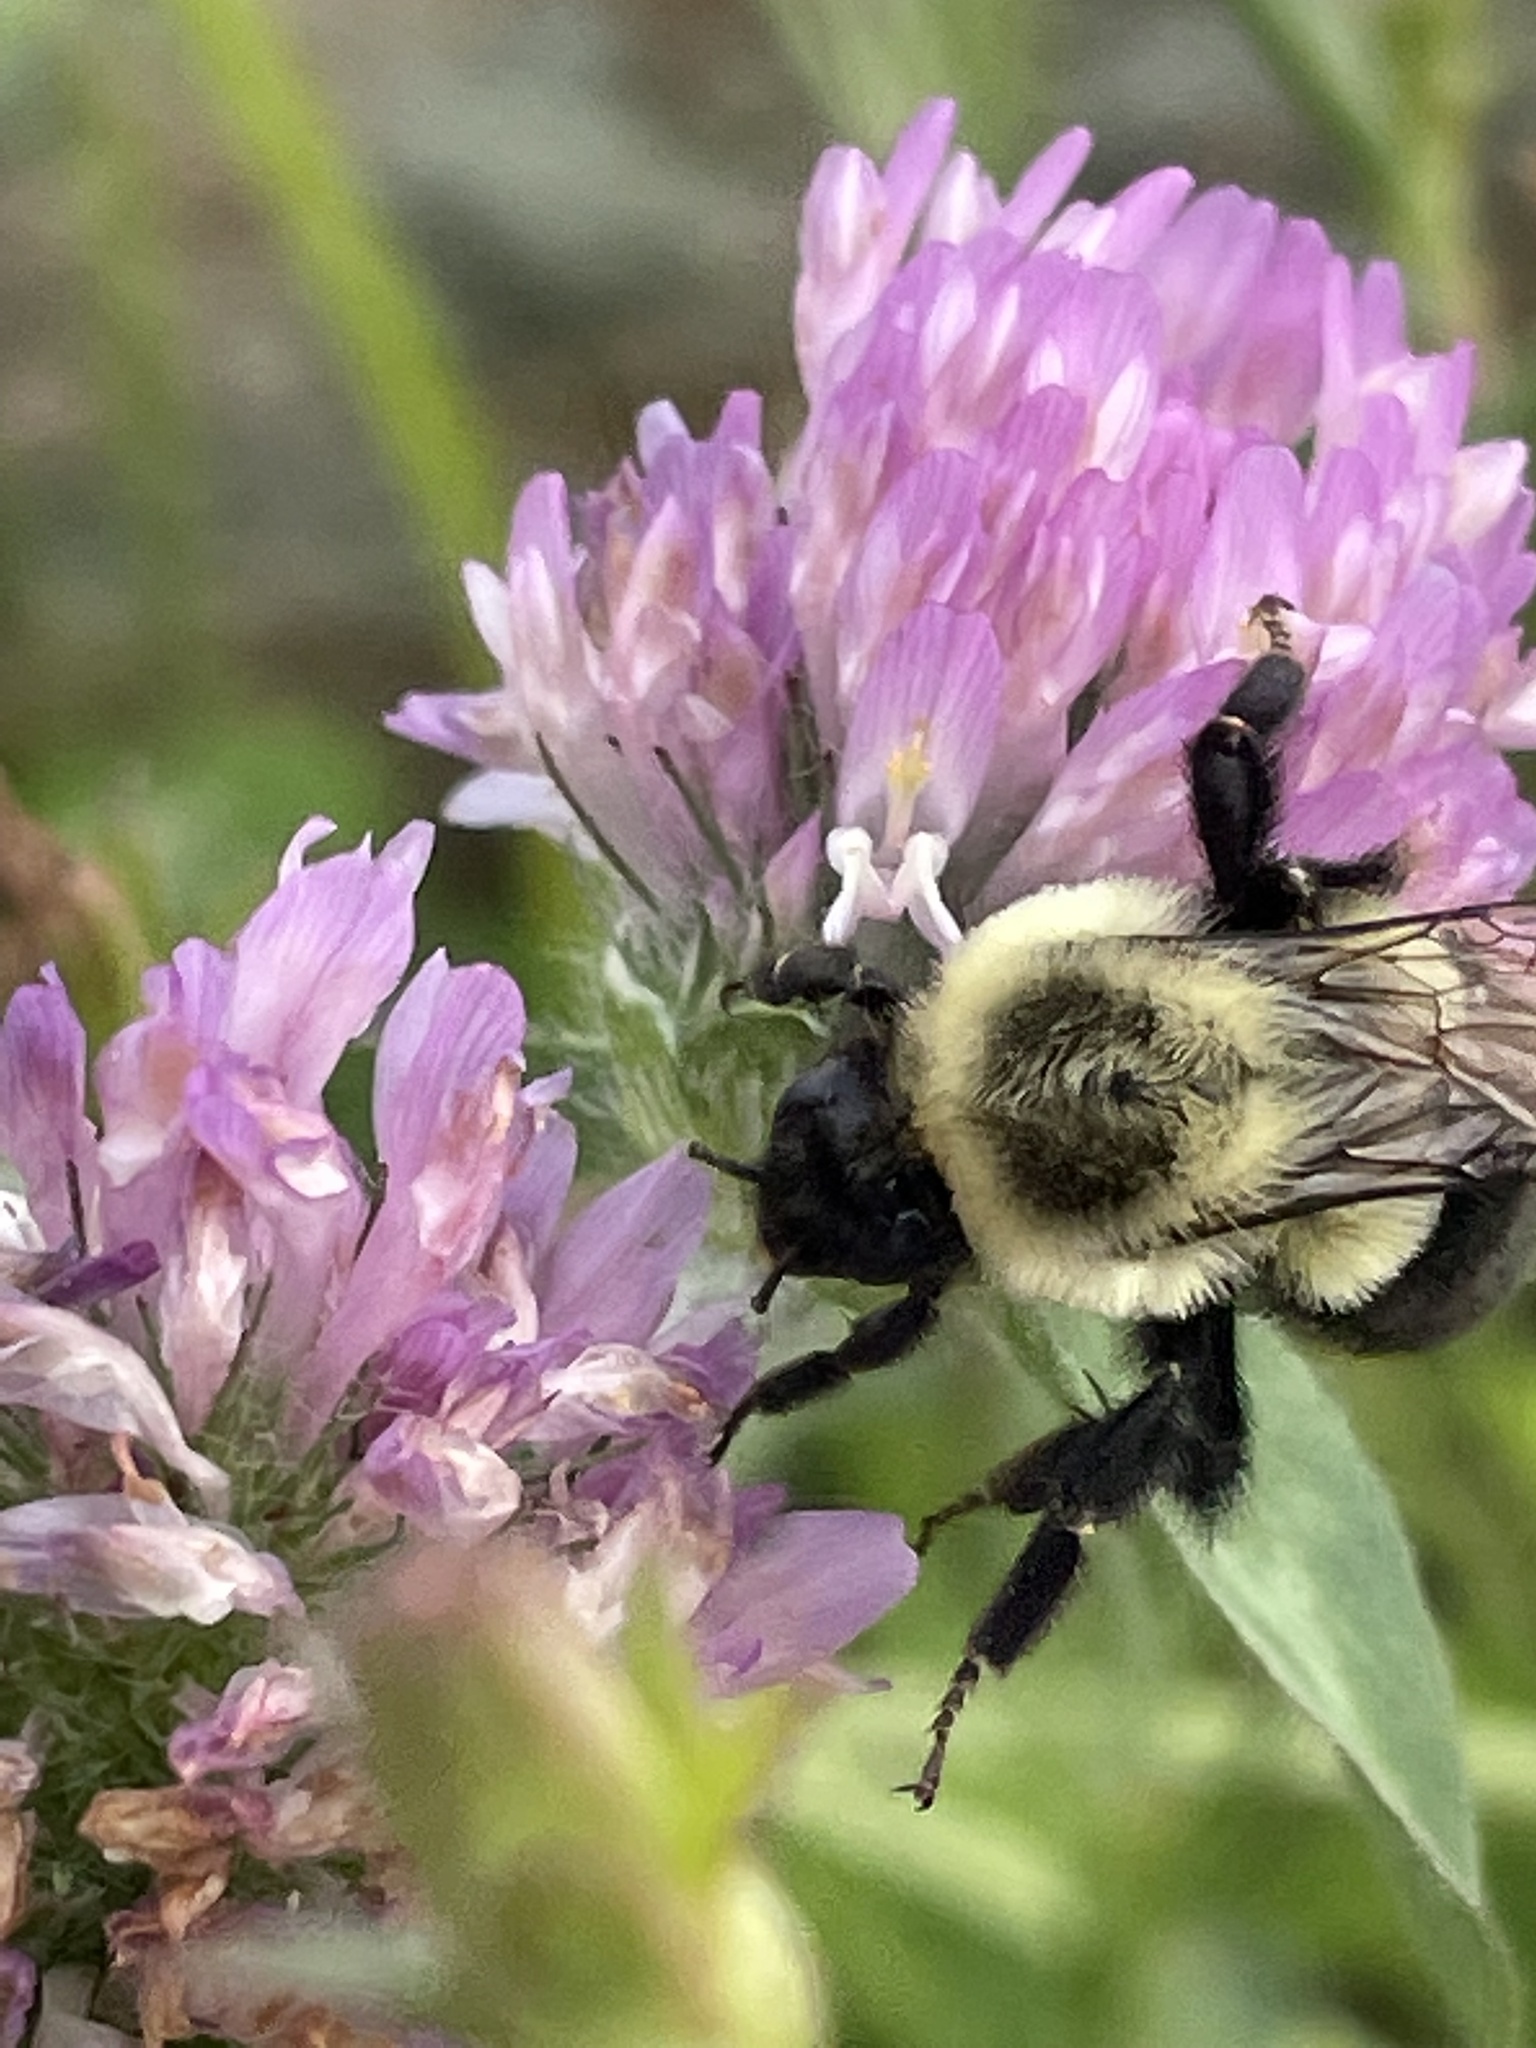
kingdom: Animalia
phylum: Arthropoda
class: Insecta
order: Hymenoptera
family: Apidae
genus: Bombus
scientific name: Bombus impatiens
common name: Common eastern bumble bee
